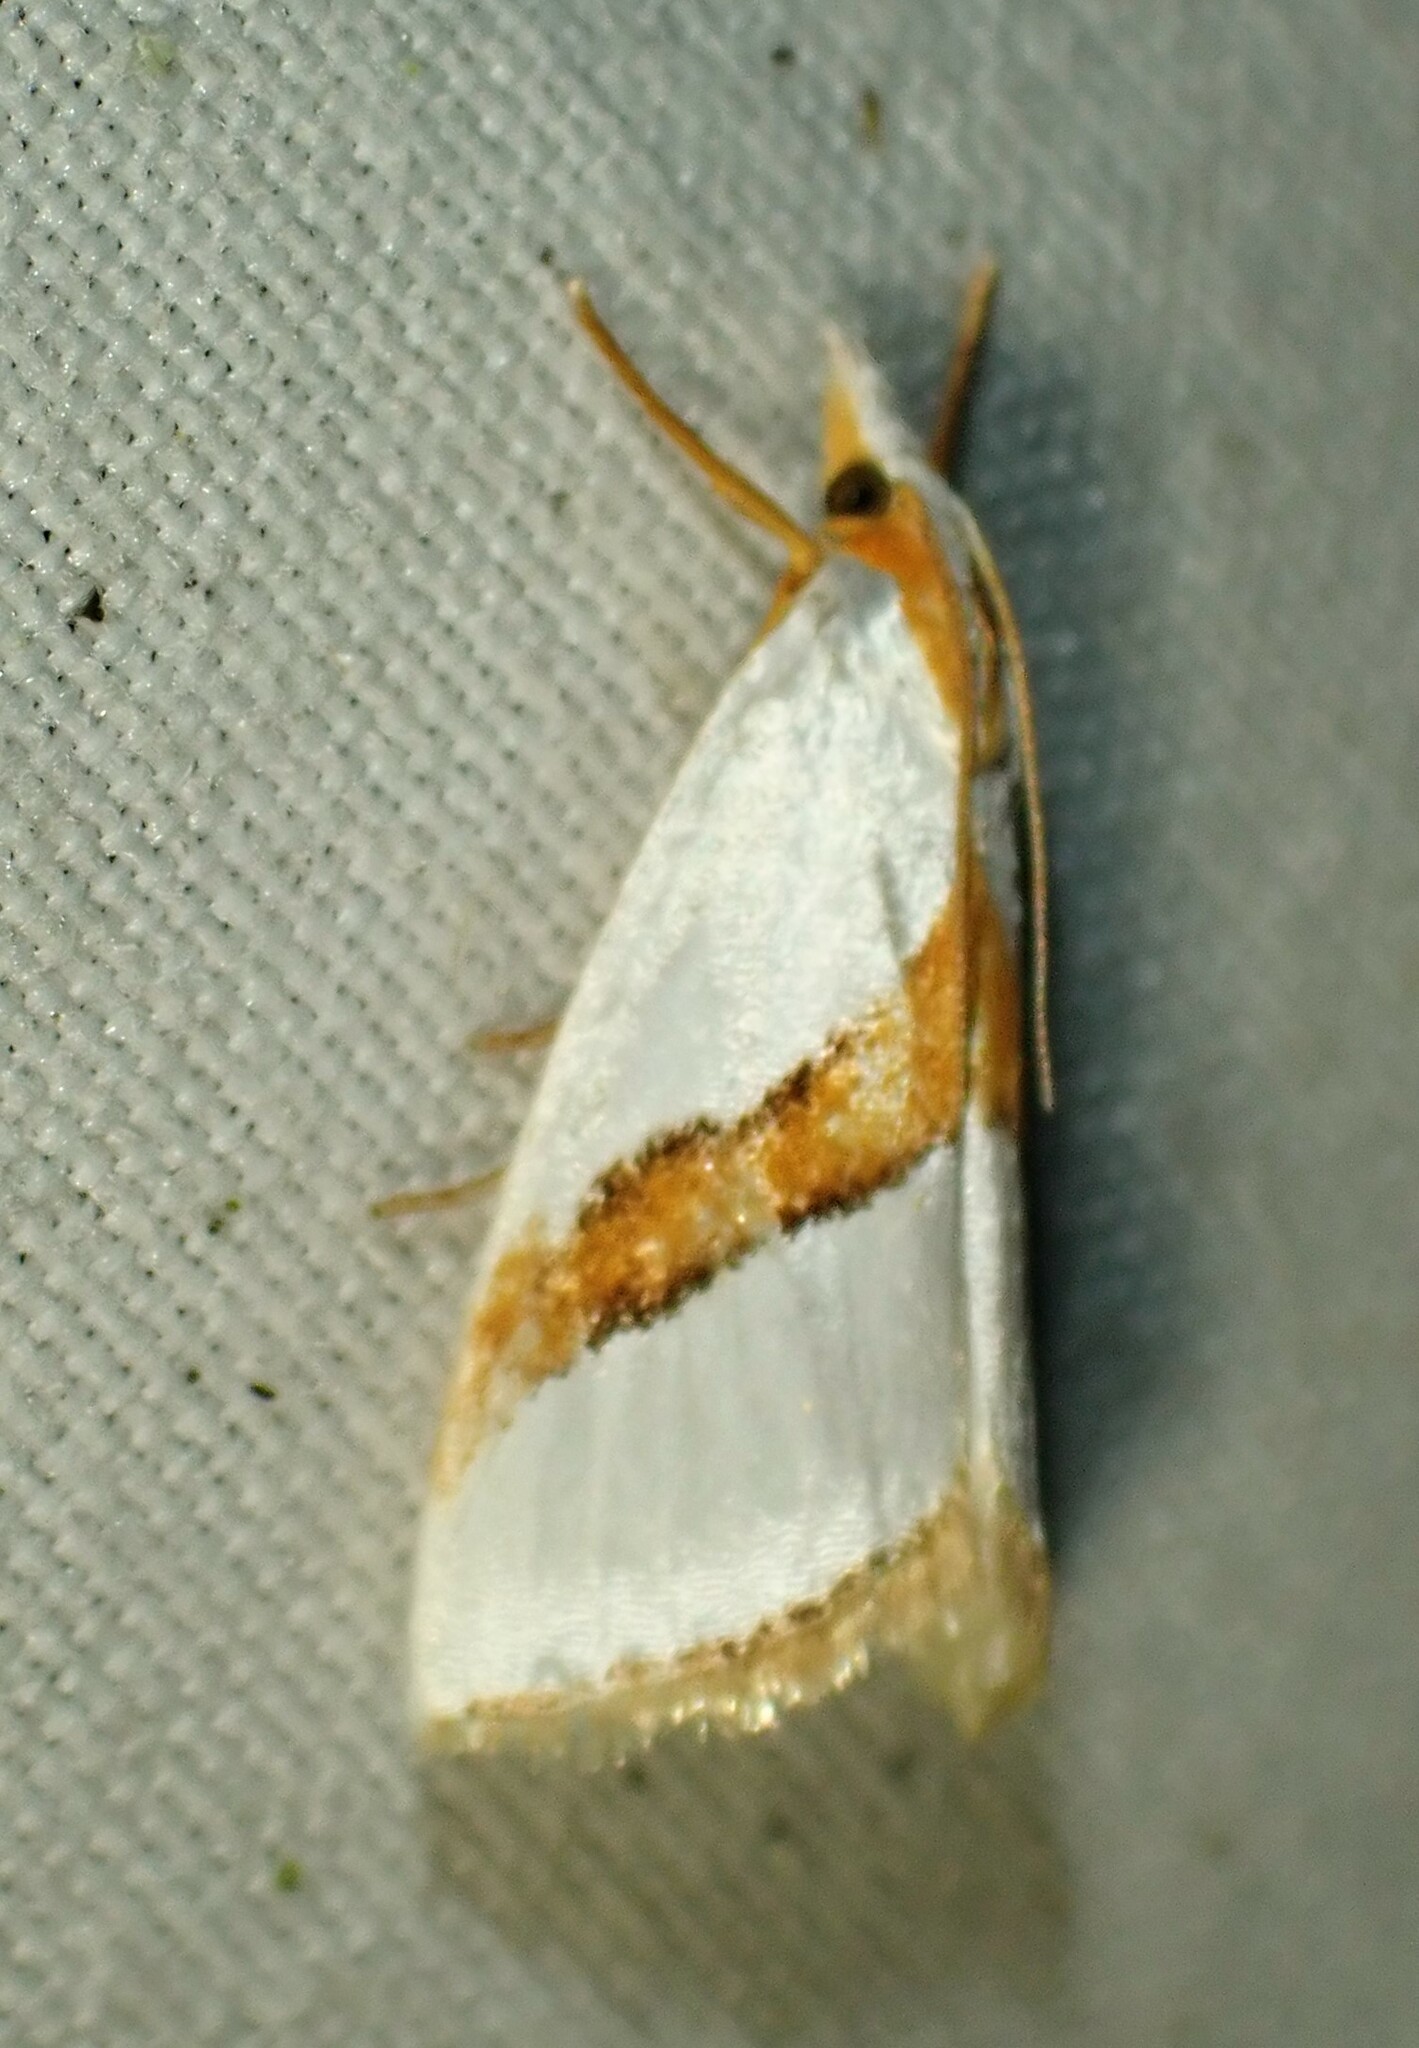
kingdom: Animalia
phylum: Arthropoda
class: Insecta
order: Lepidoptera
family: Crambidae
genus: Vaxi
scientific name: Vaxi critica
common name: Straight-lined vaxi moth
